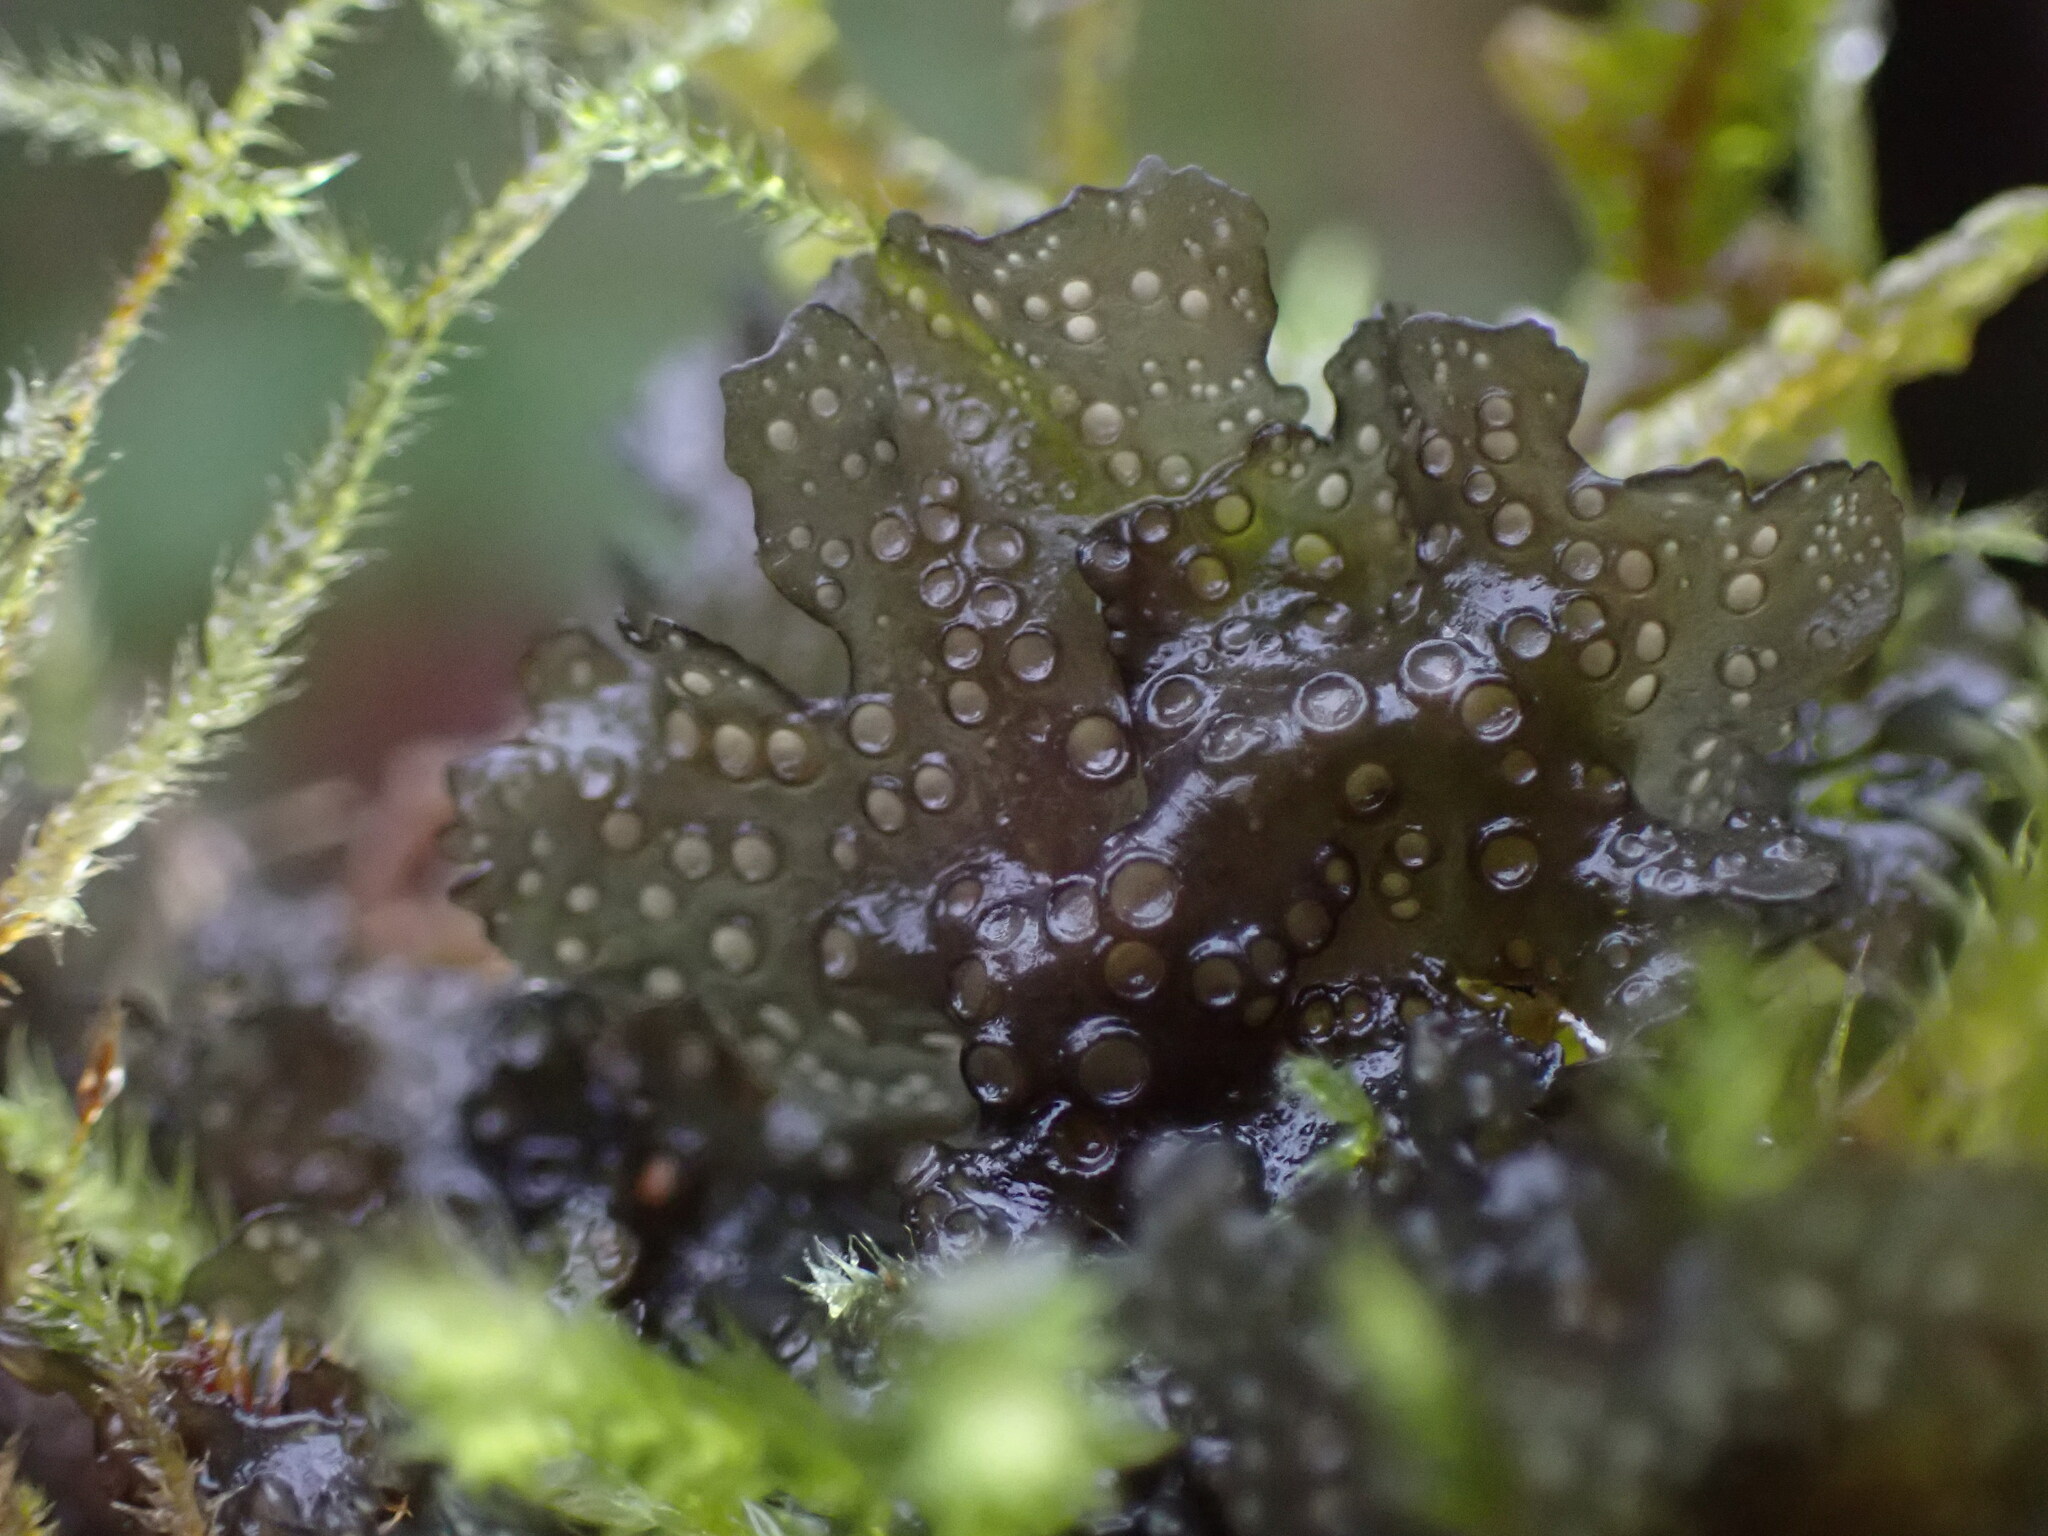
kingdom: Fungi
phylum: Ascomycota
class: Lecanoromycetes
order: Peltigerales
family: Collemataceae
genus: Scytinium
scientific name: Scytinium polycarpum
